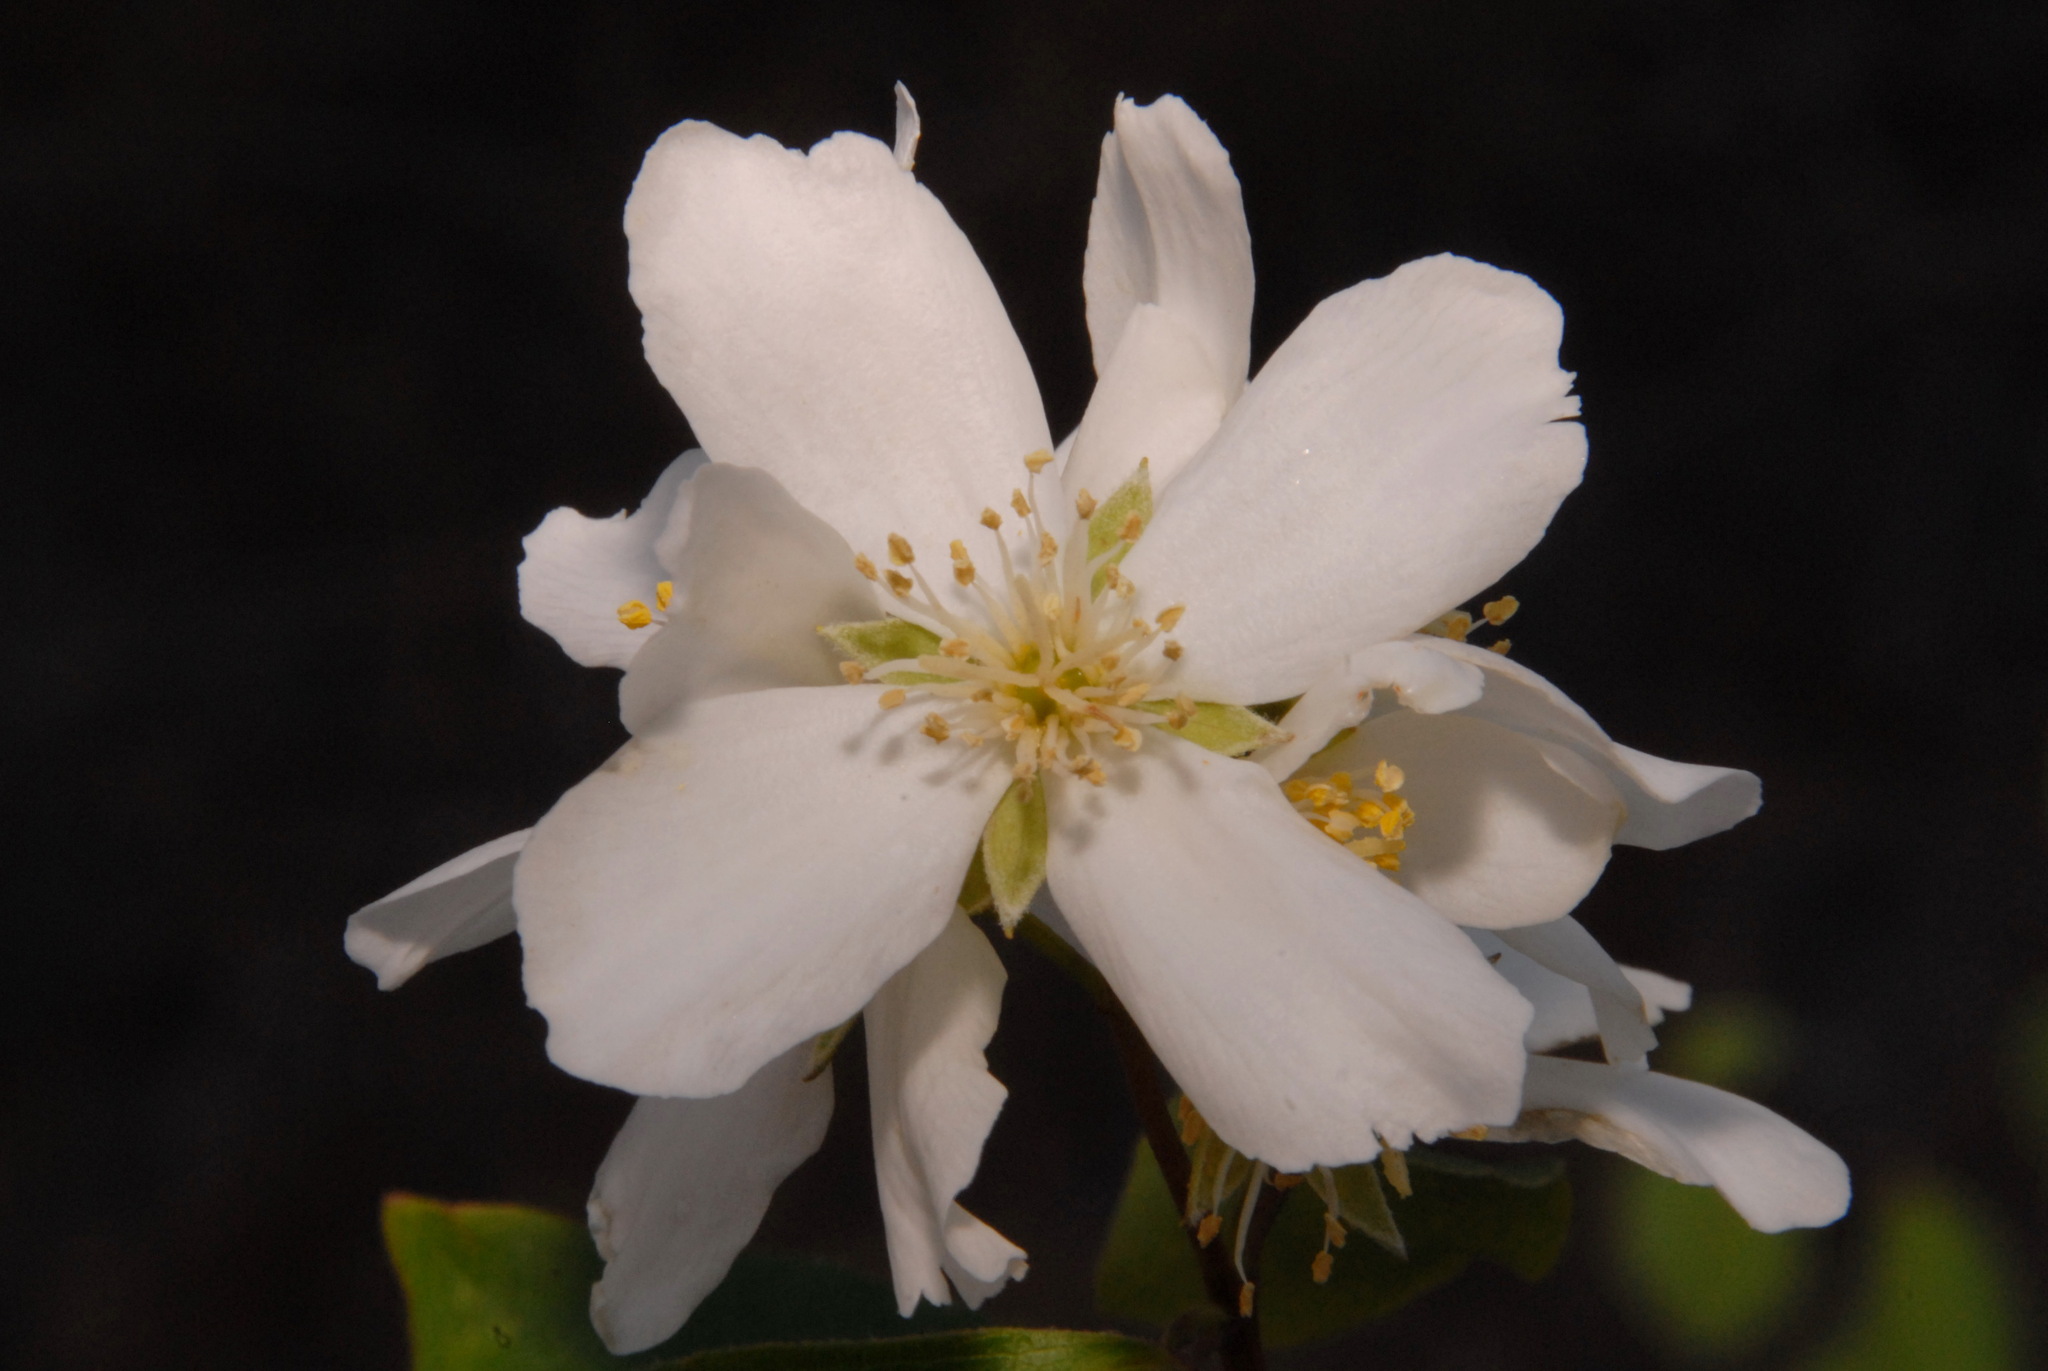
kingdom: Plantae
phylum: Tracheophyta
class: Magnoliopsida
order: Cornales
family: Hydrangeaceae
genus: Philadelphus
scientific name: Philadelphus lewisii
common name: Lewis's mock orange
